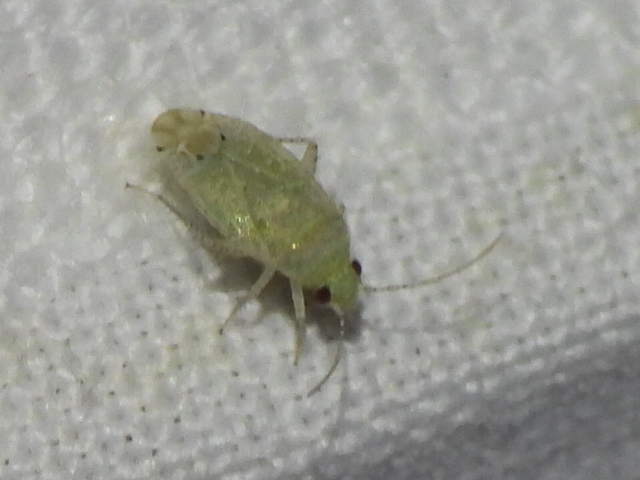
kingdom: Animalia
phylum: Arthropoda
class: Insecta
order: Hemiptera
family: Miridae
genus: Pseudatomoscelis
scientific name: Pseudatomoscelis seriatus
